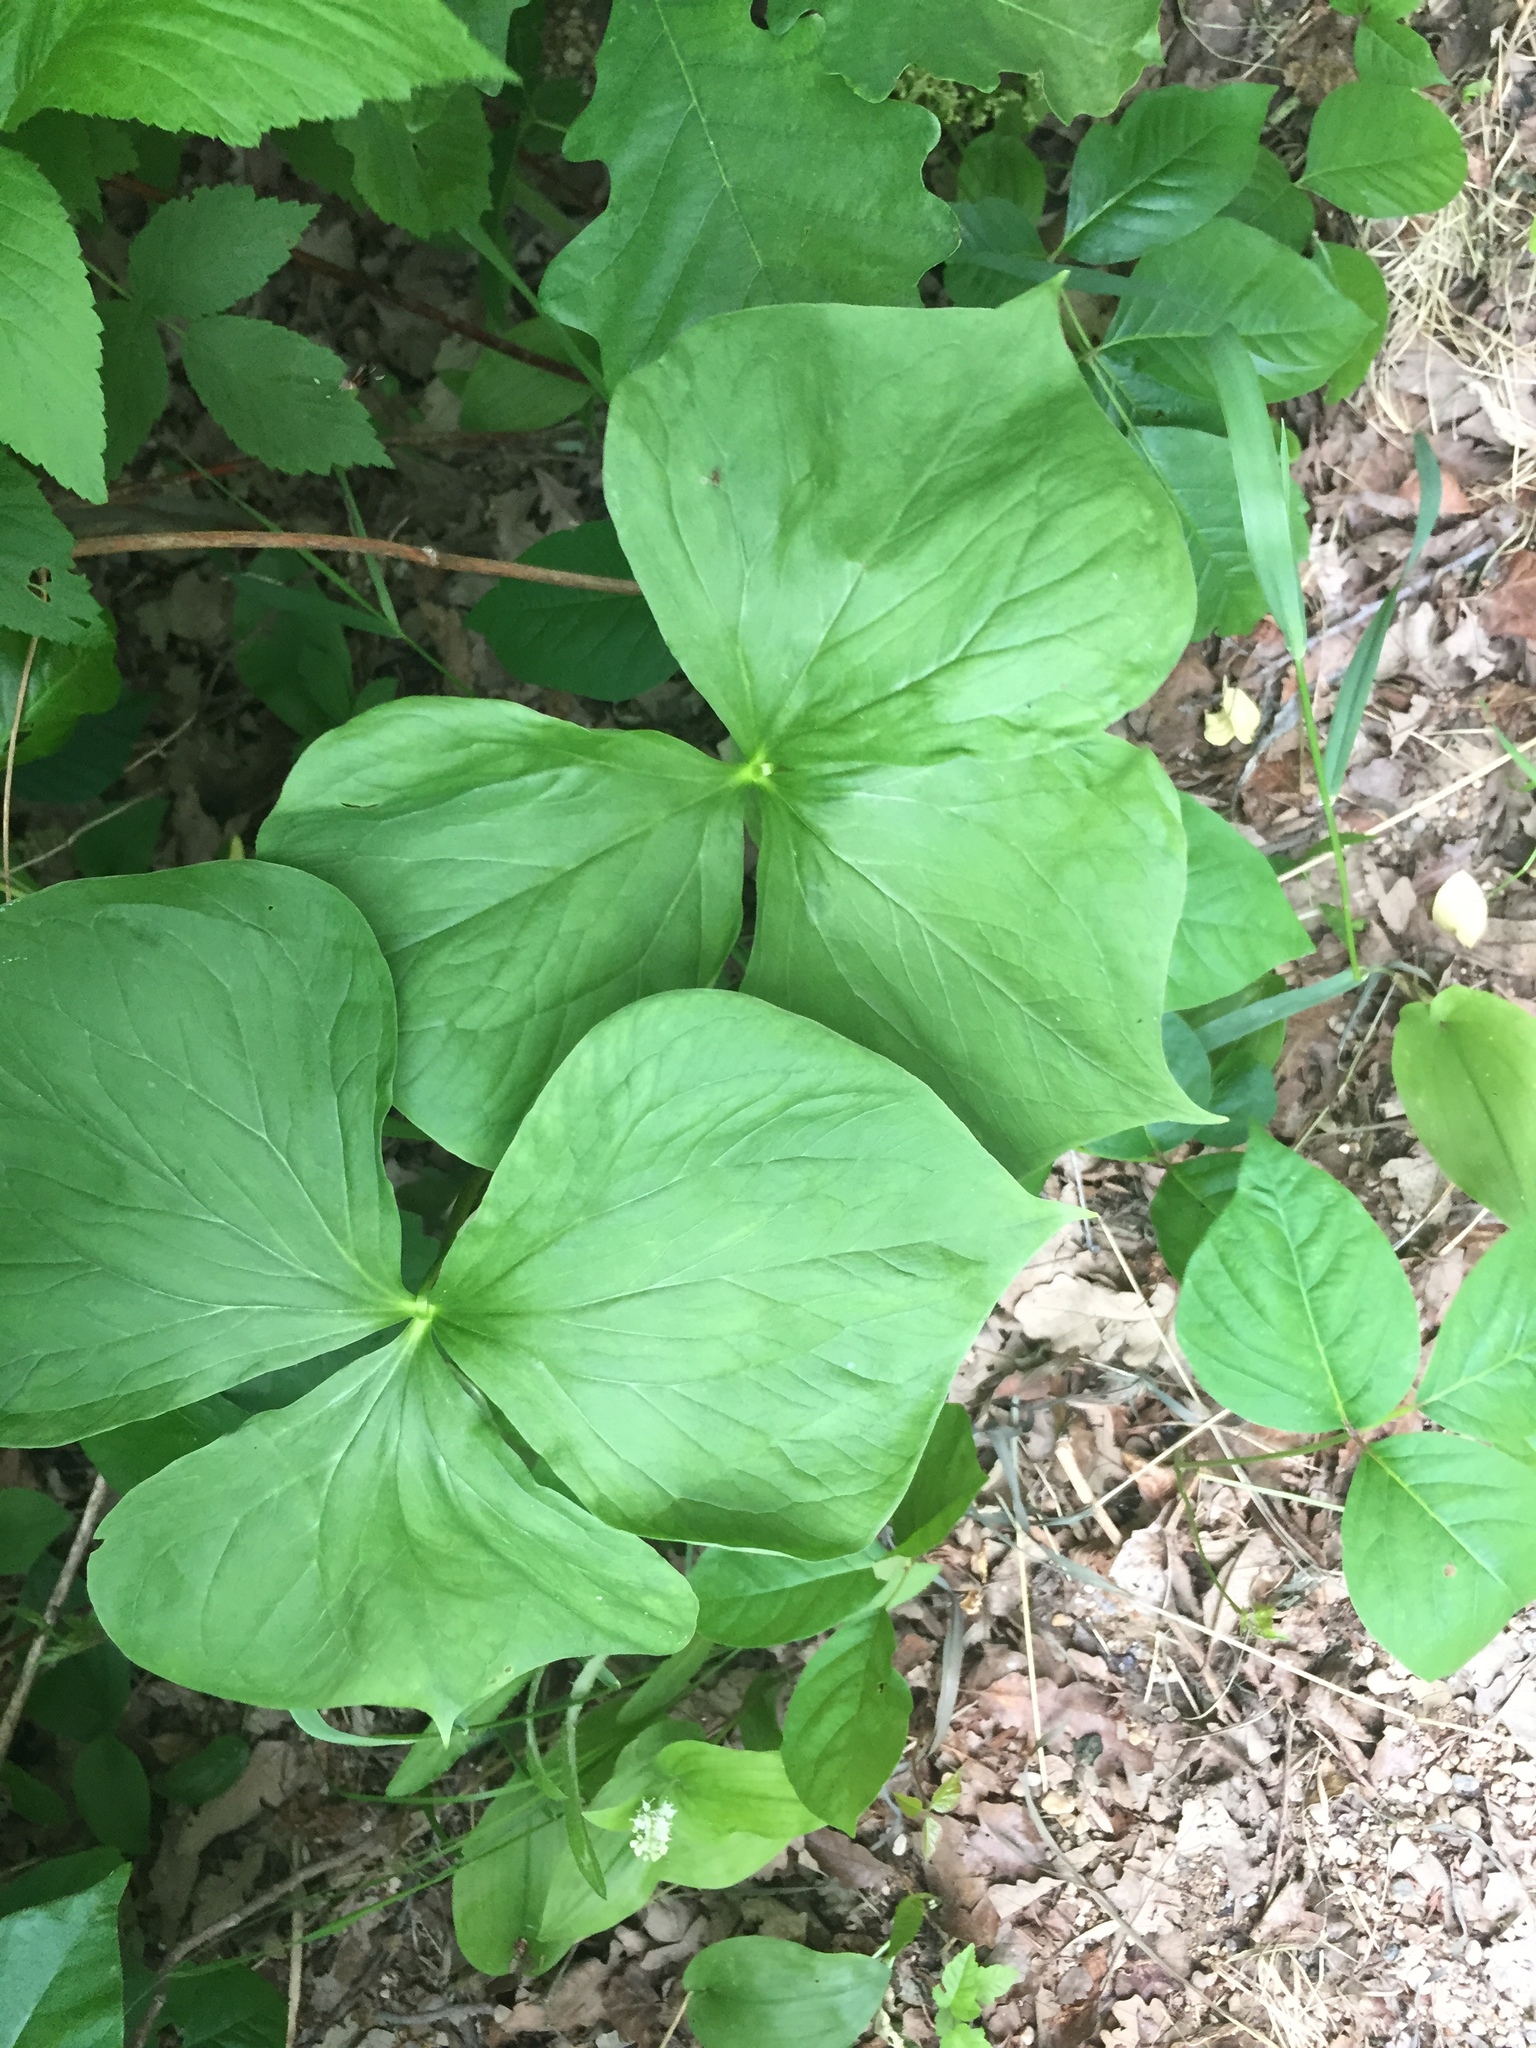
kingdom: Plantae
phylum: Tracheophyta
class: Liliopsida
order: Liliales
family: Melanthiaceae
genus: Trillium
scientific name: Trillium cernuum
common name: Nodding trillium
